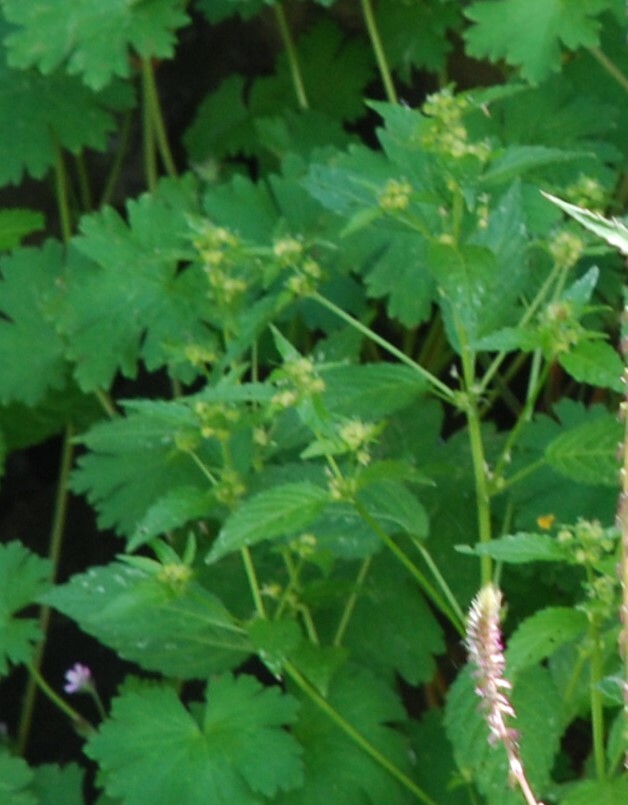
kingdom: Plantae
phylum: Tracheophyta
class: Magnoliopsida
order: Malpighiales
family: Euphorbiaceae
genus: Mercurialis
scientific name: Mercurialis annua
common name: Annual mercury
